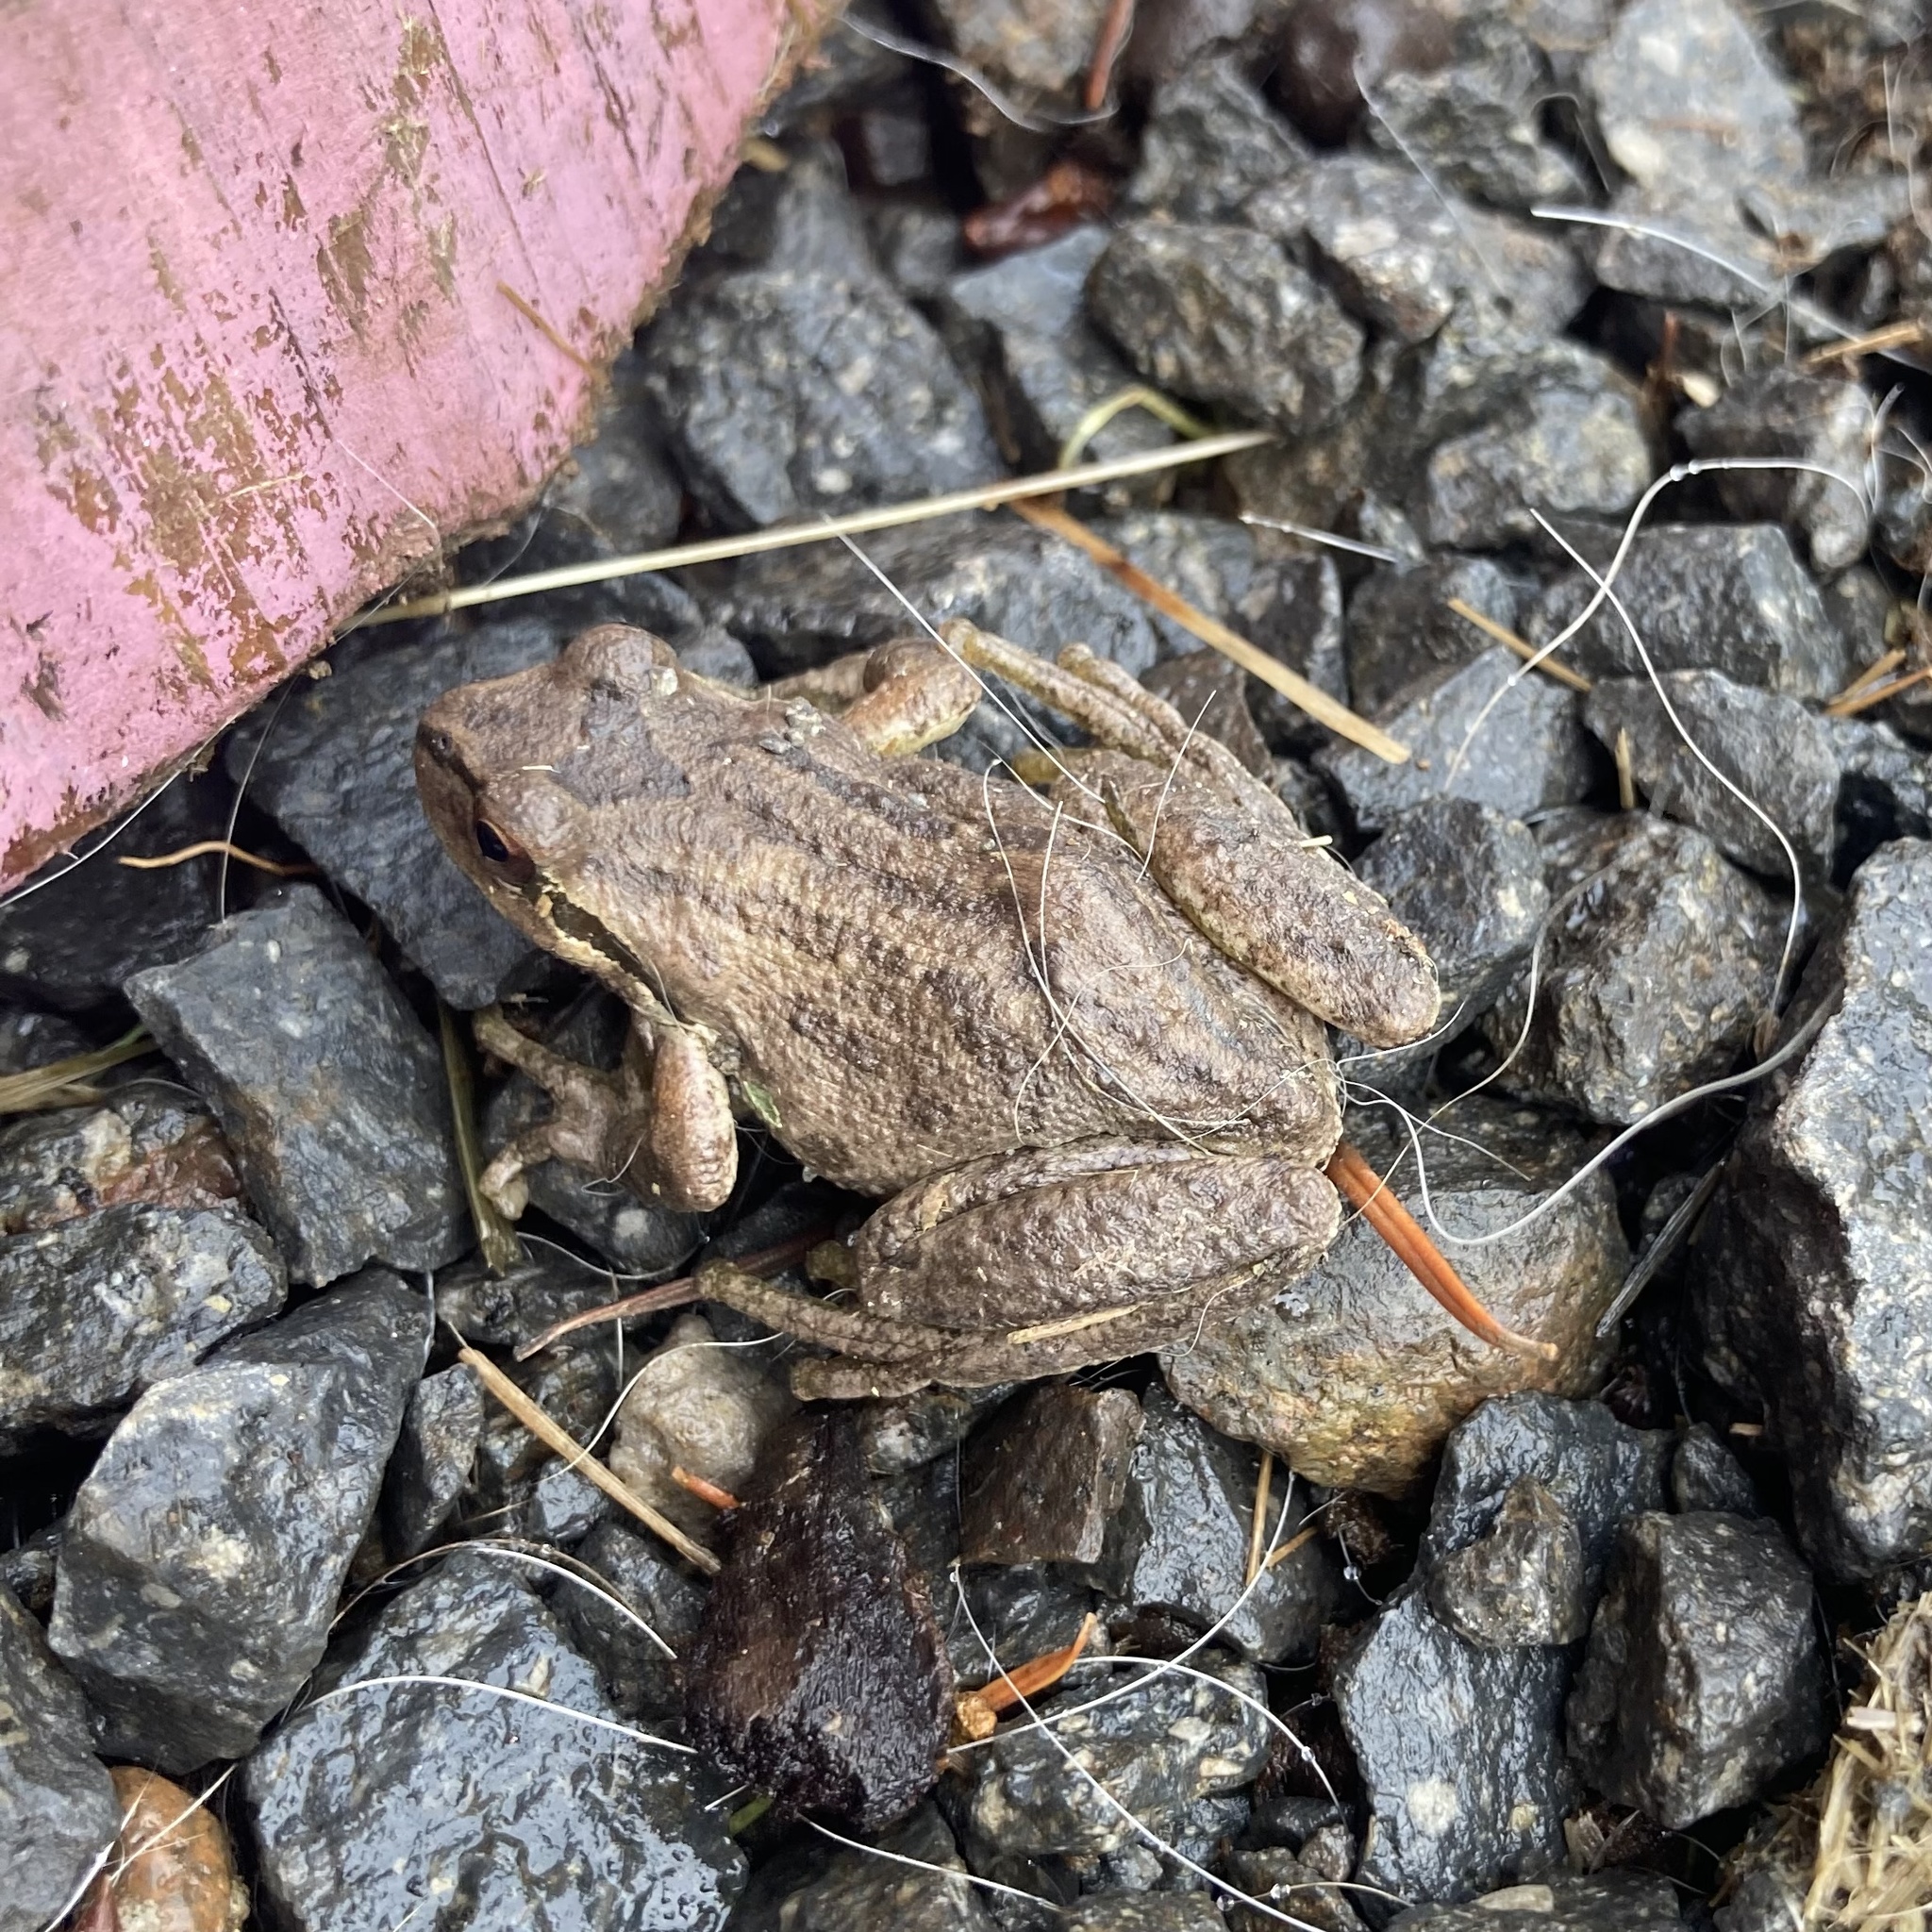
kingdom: Animalia
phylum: Chordata
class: Amphibia
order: Anura
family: Hylidae
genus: Pseudacris
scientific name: Pseudacris regilla
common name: Pacific chorus frog
